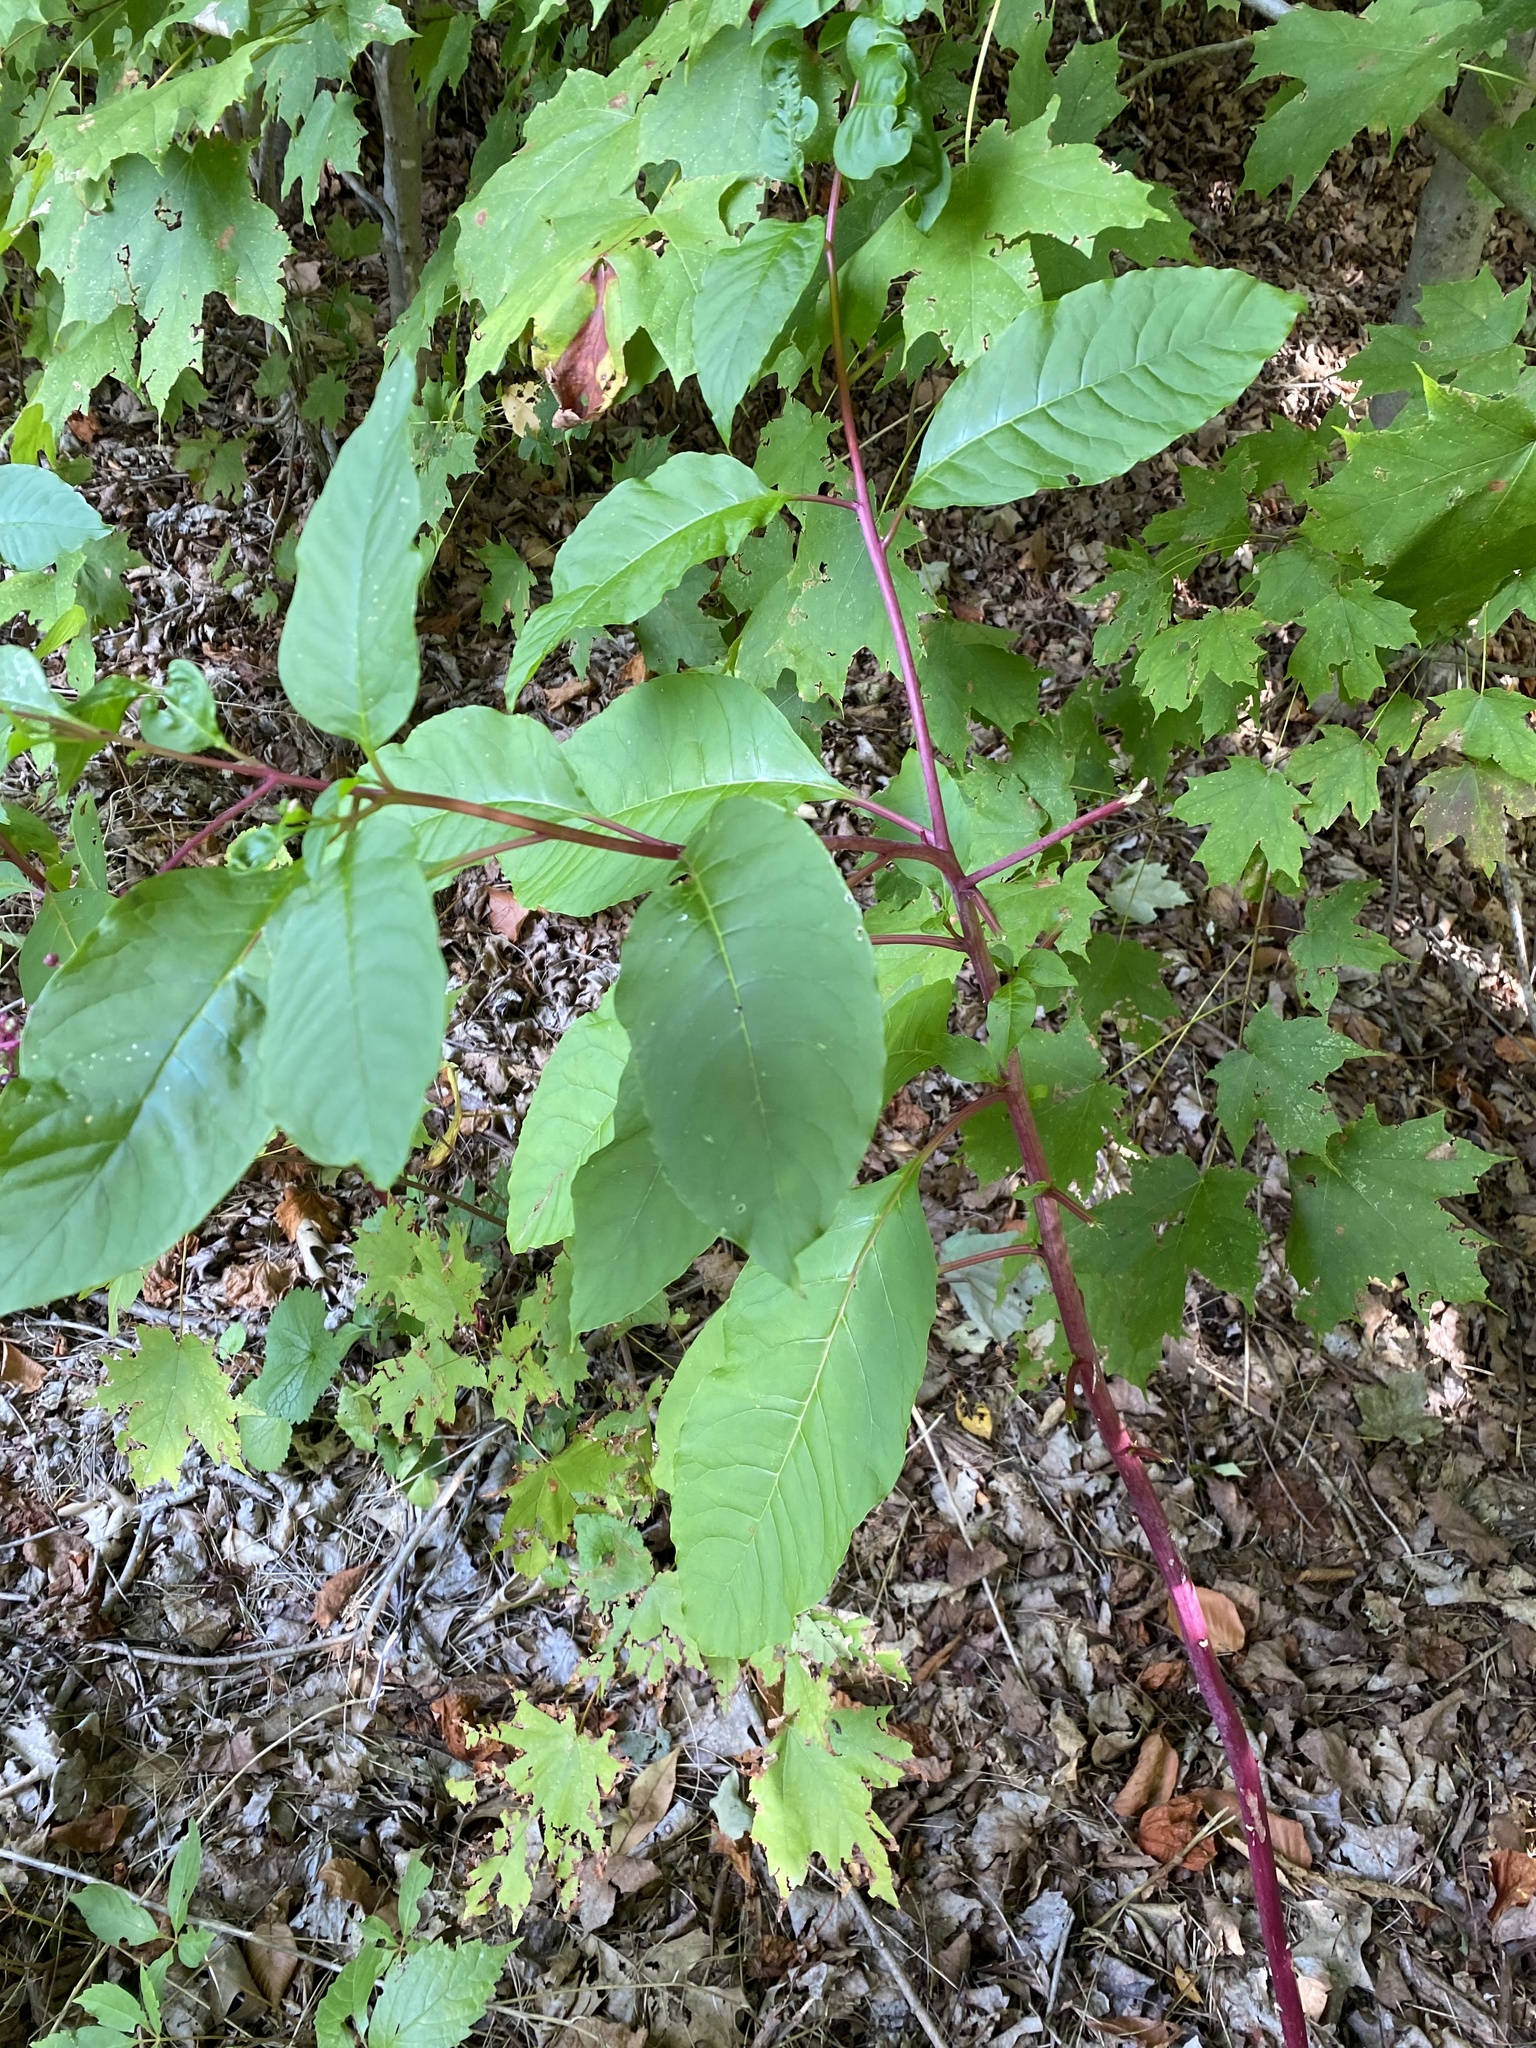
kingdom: Plantae
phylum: Tracheophyta
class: Magnoliopsida
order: Caryophyllales
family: Phytolaccaceae
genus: Phytolacca
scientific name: Phytolacca americana
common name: American pokeweed
